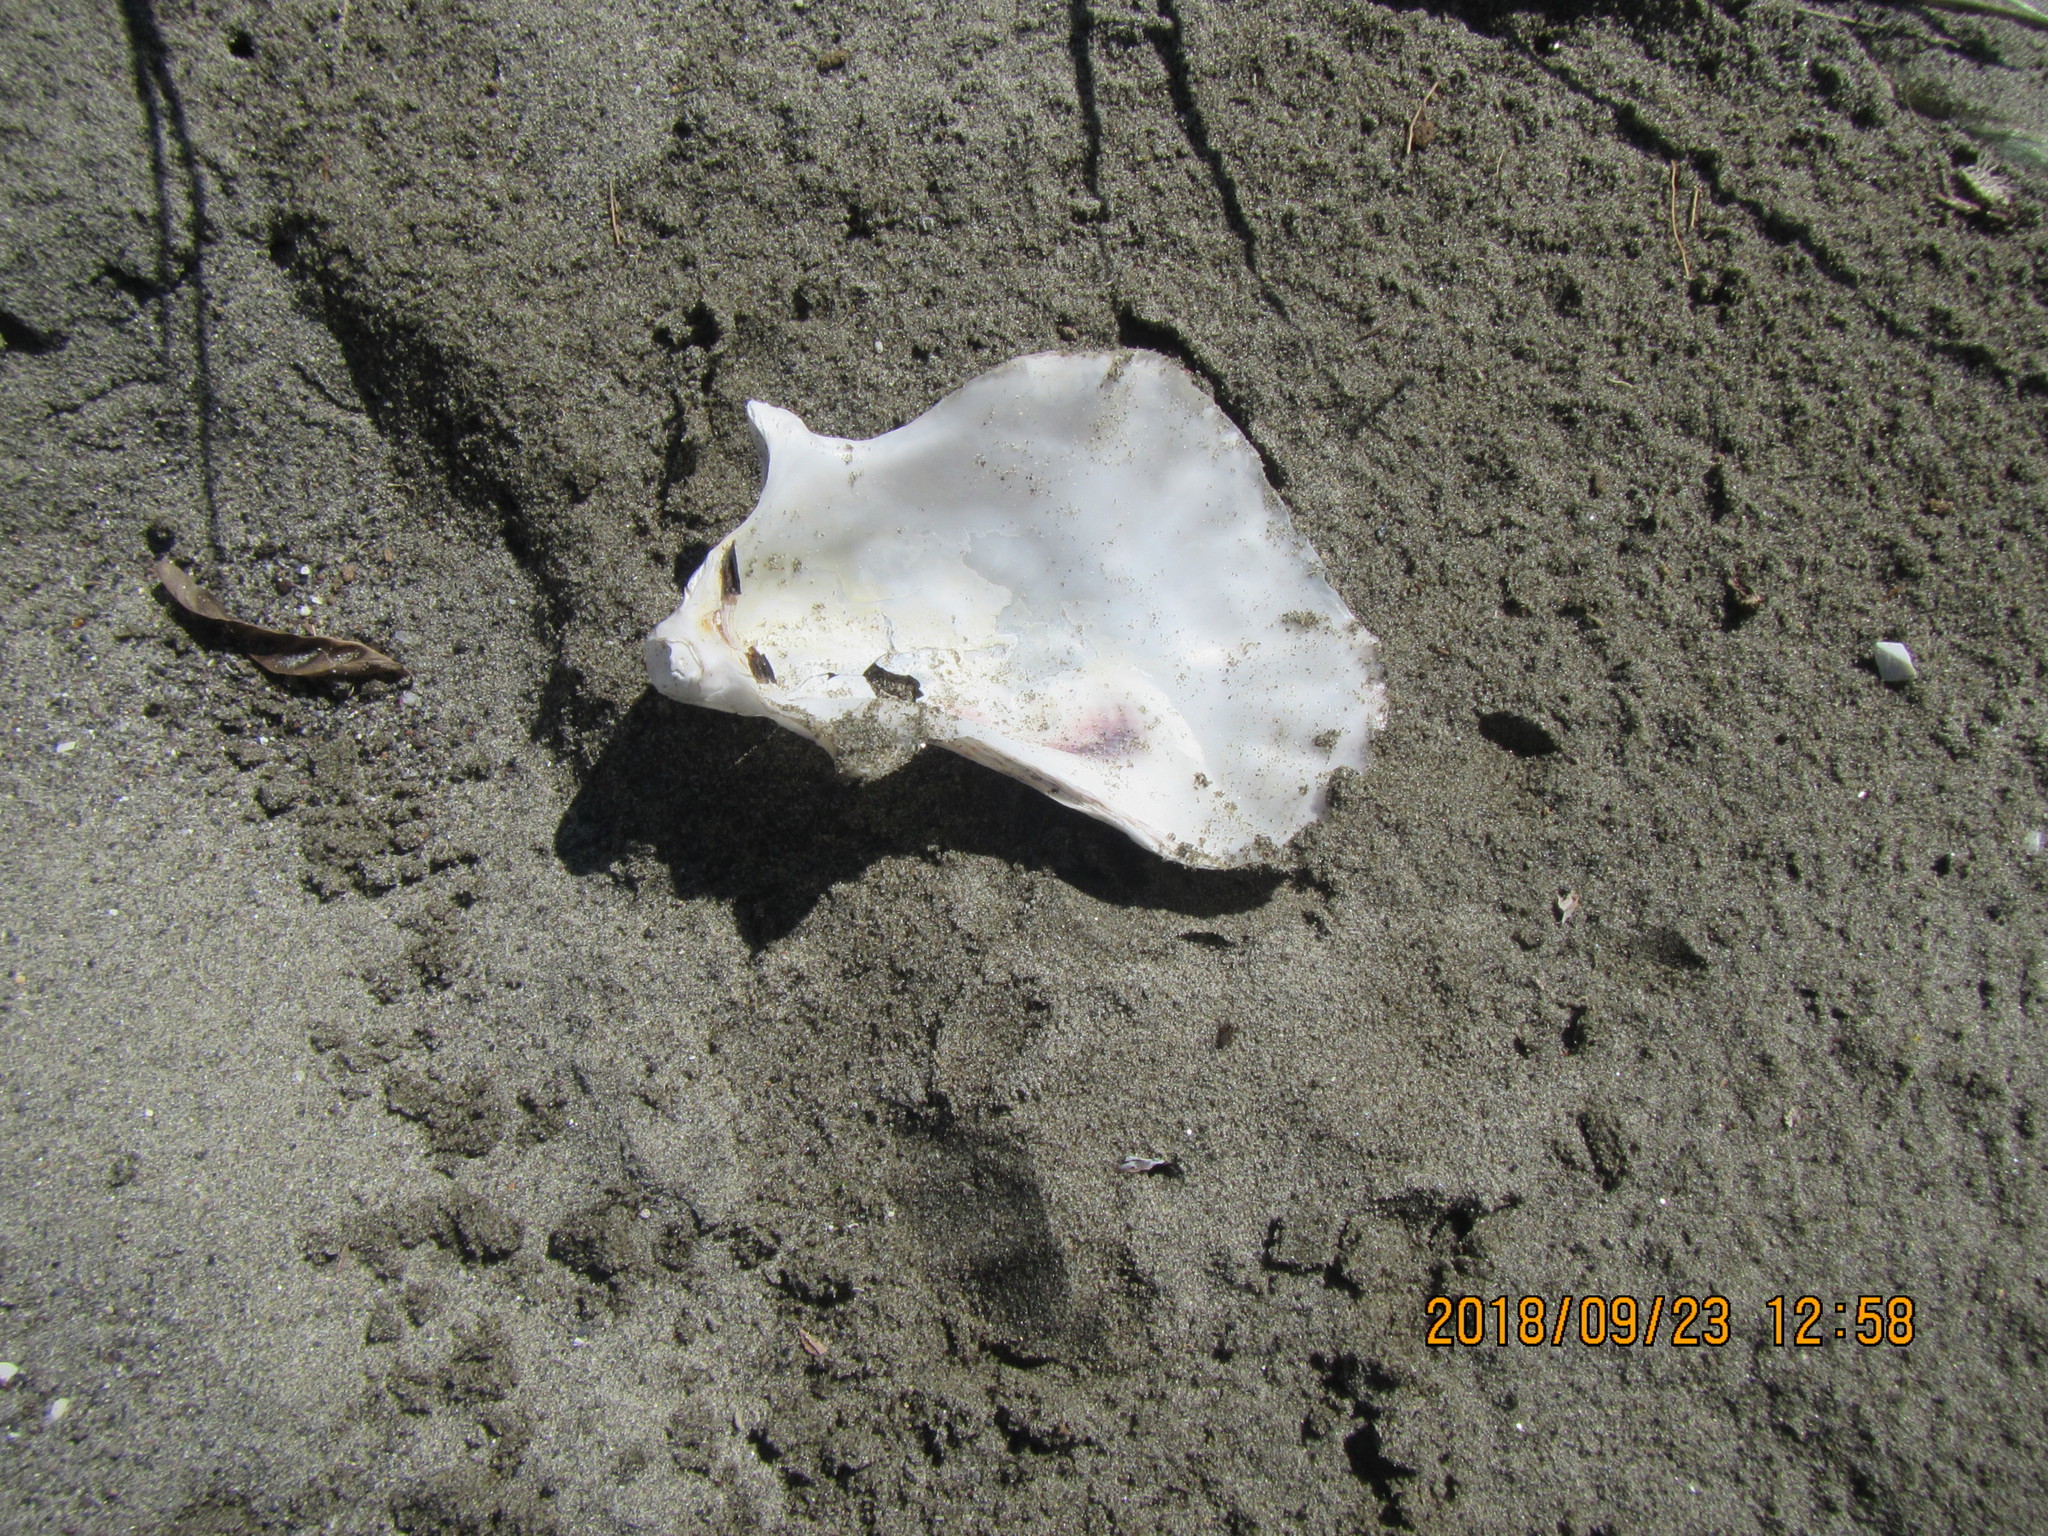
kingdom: Animalia
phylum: Mollusca
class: Bivalvia
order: Ostreida
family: Ostreidae
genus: Magallana
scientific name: Magallana gigas
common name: Pacific oyster
